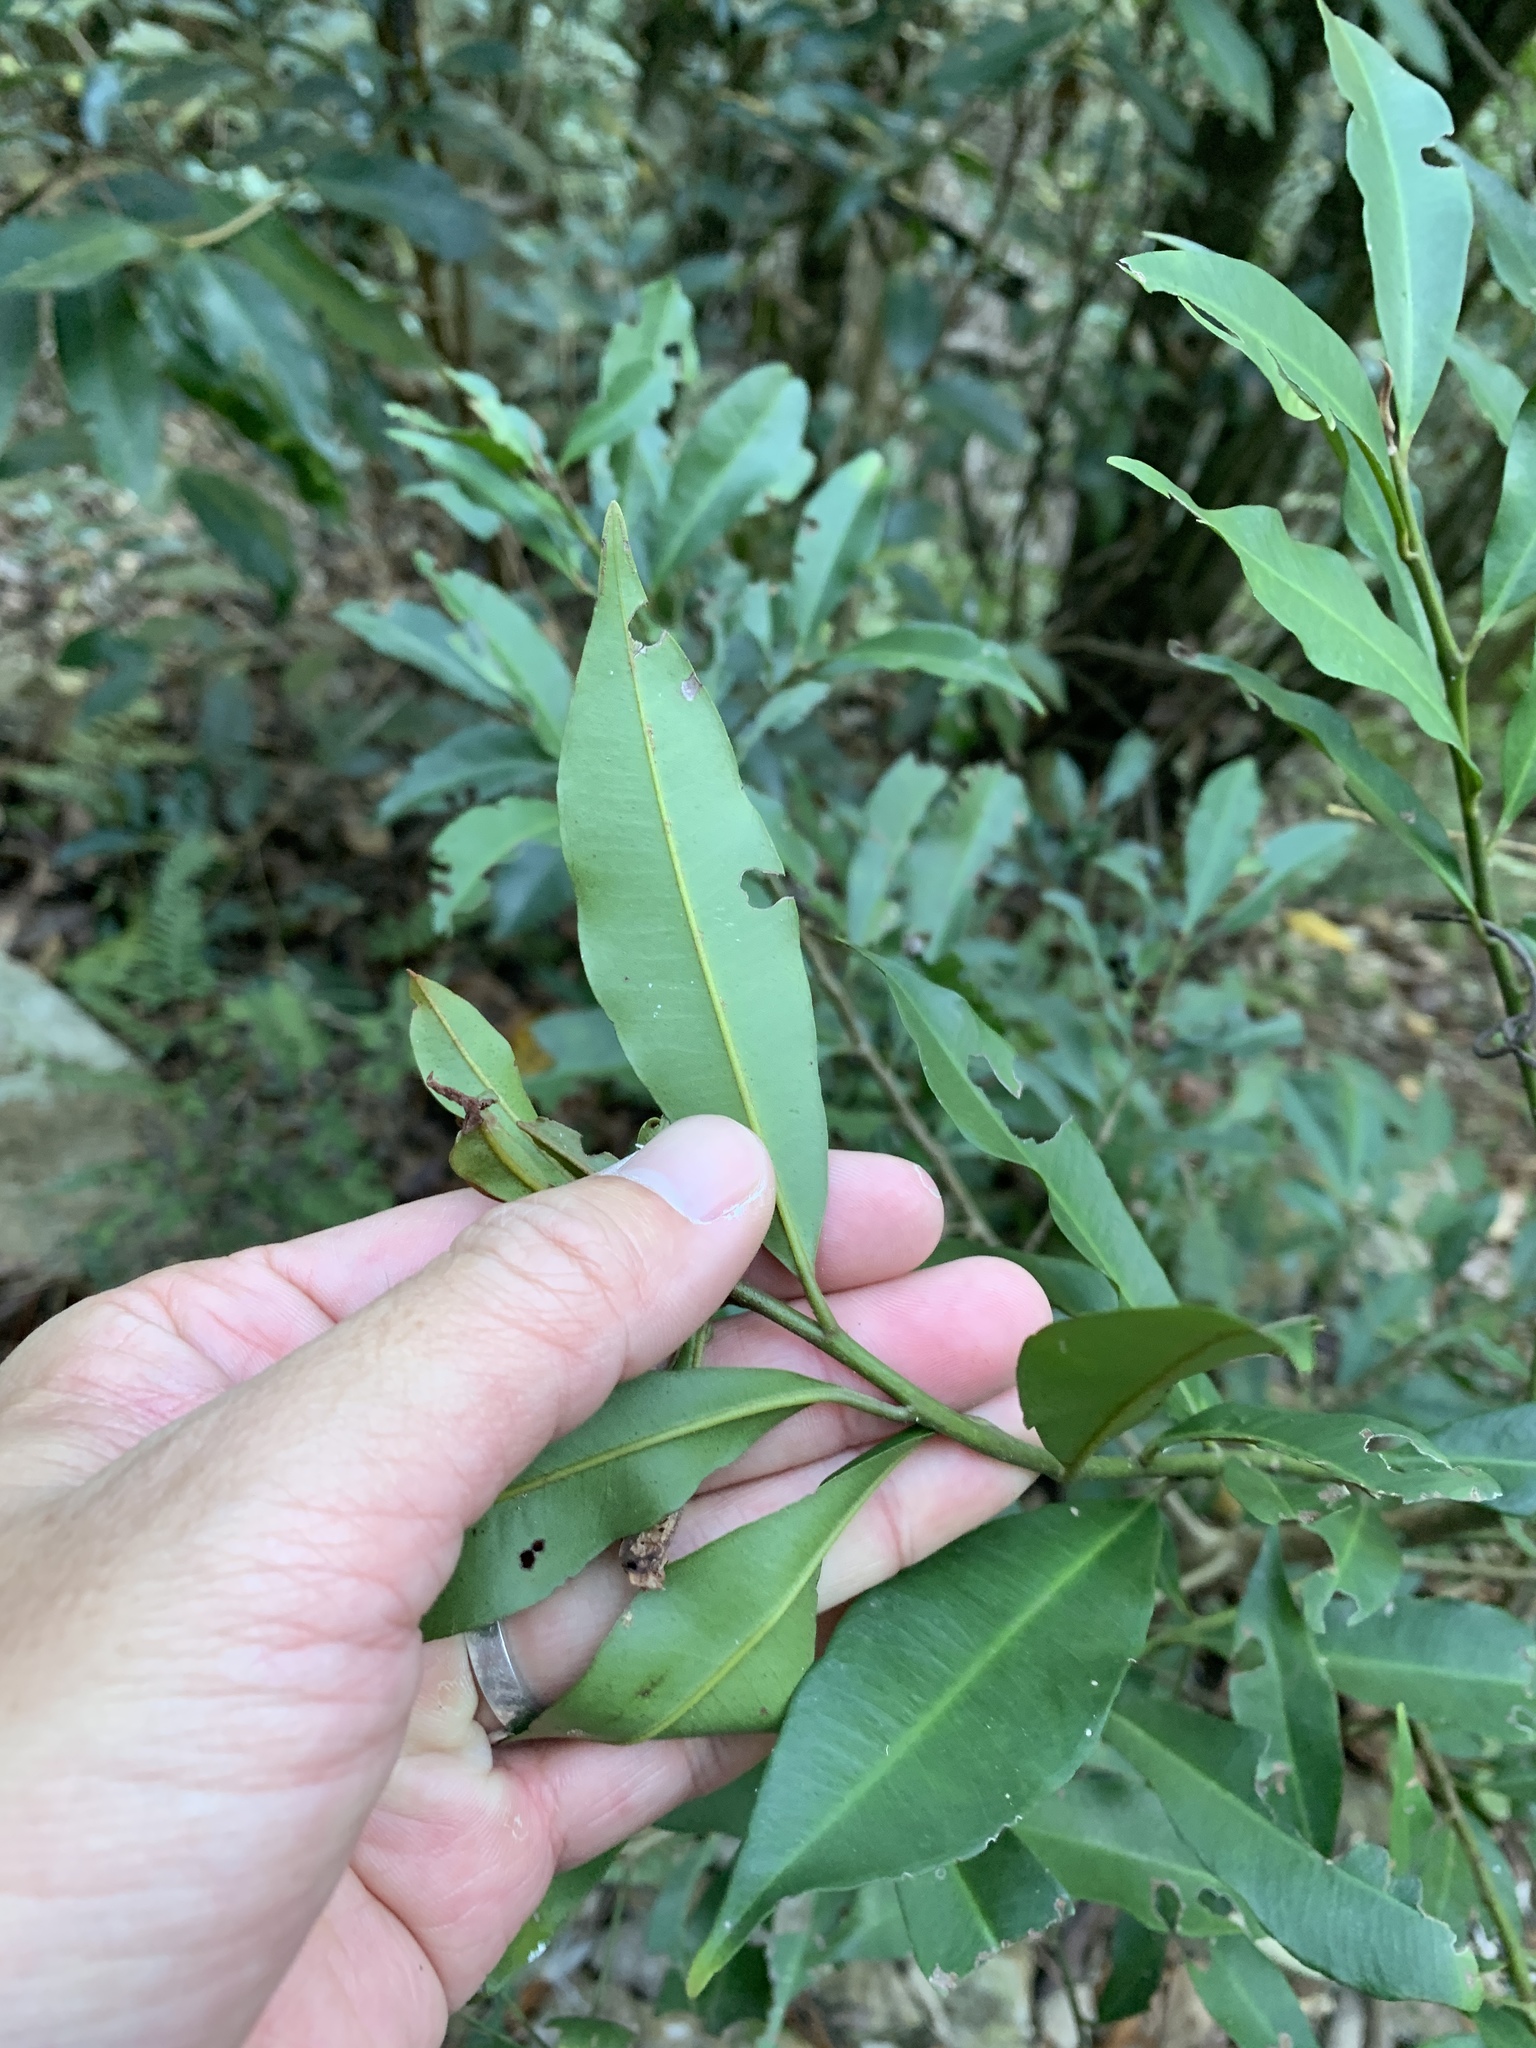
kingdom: Plantae
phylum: Tracheophyta
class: Magnoliopsida
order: Ericales
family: Primulaceae
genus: Ardisia
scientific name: Ardisia quinquegona
